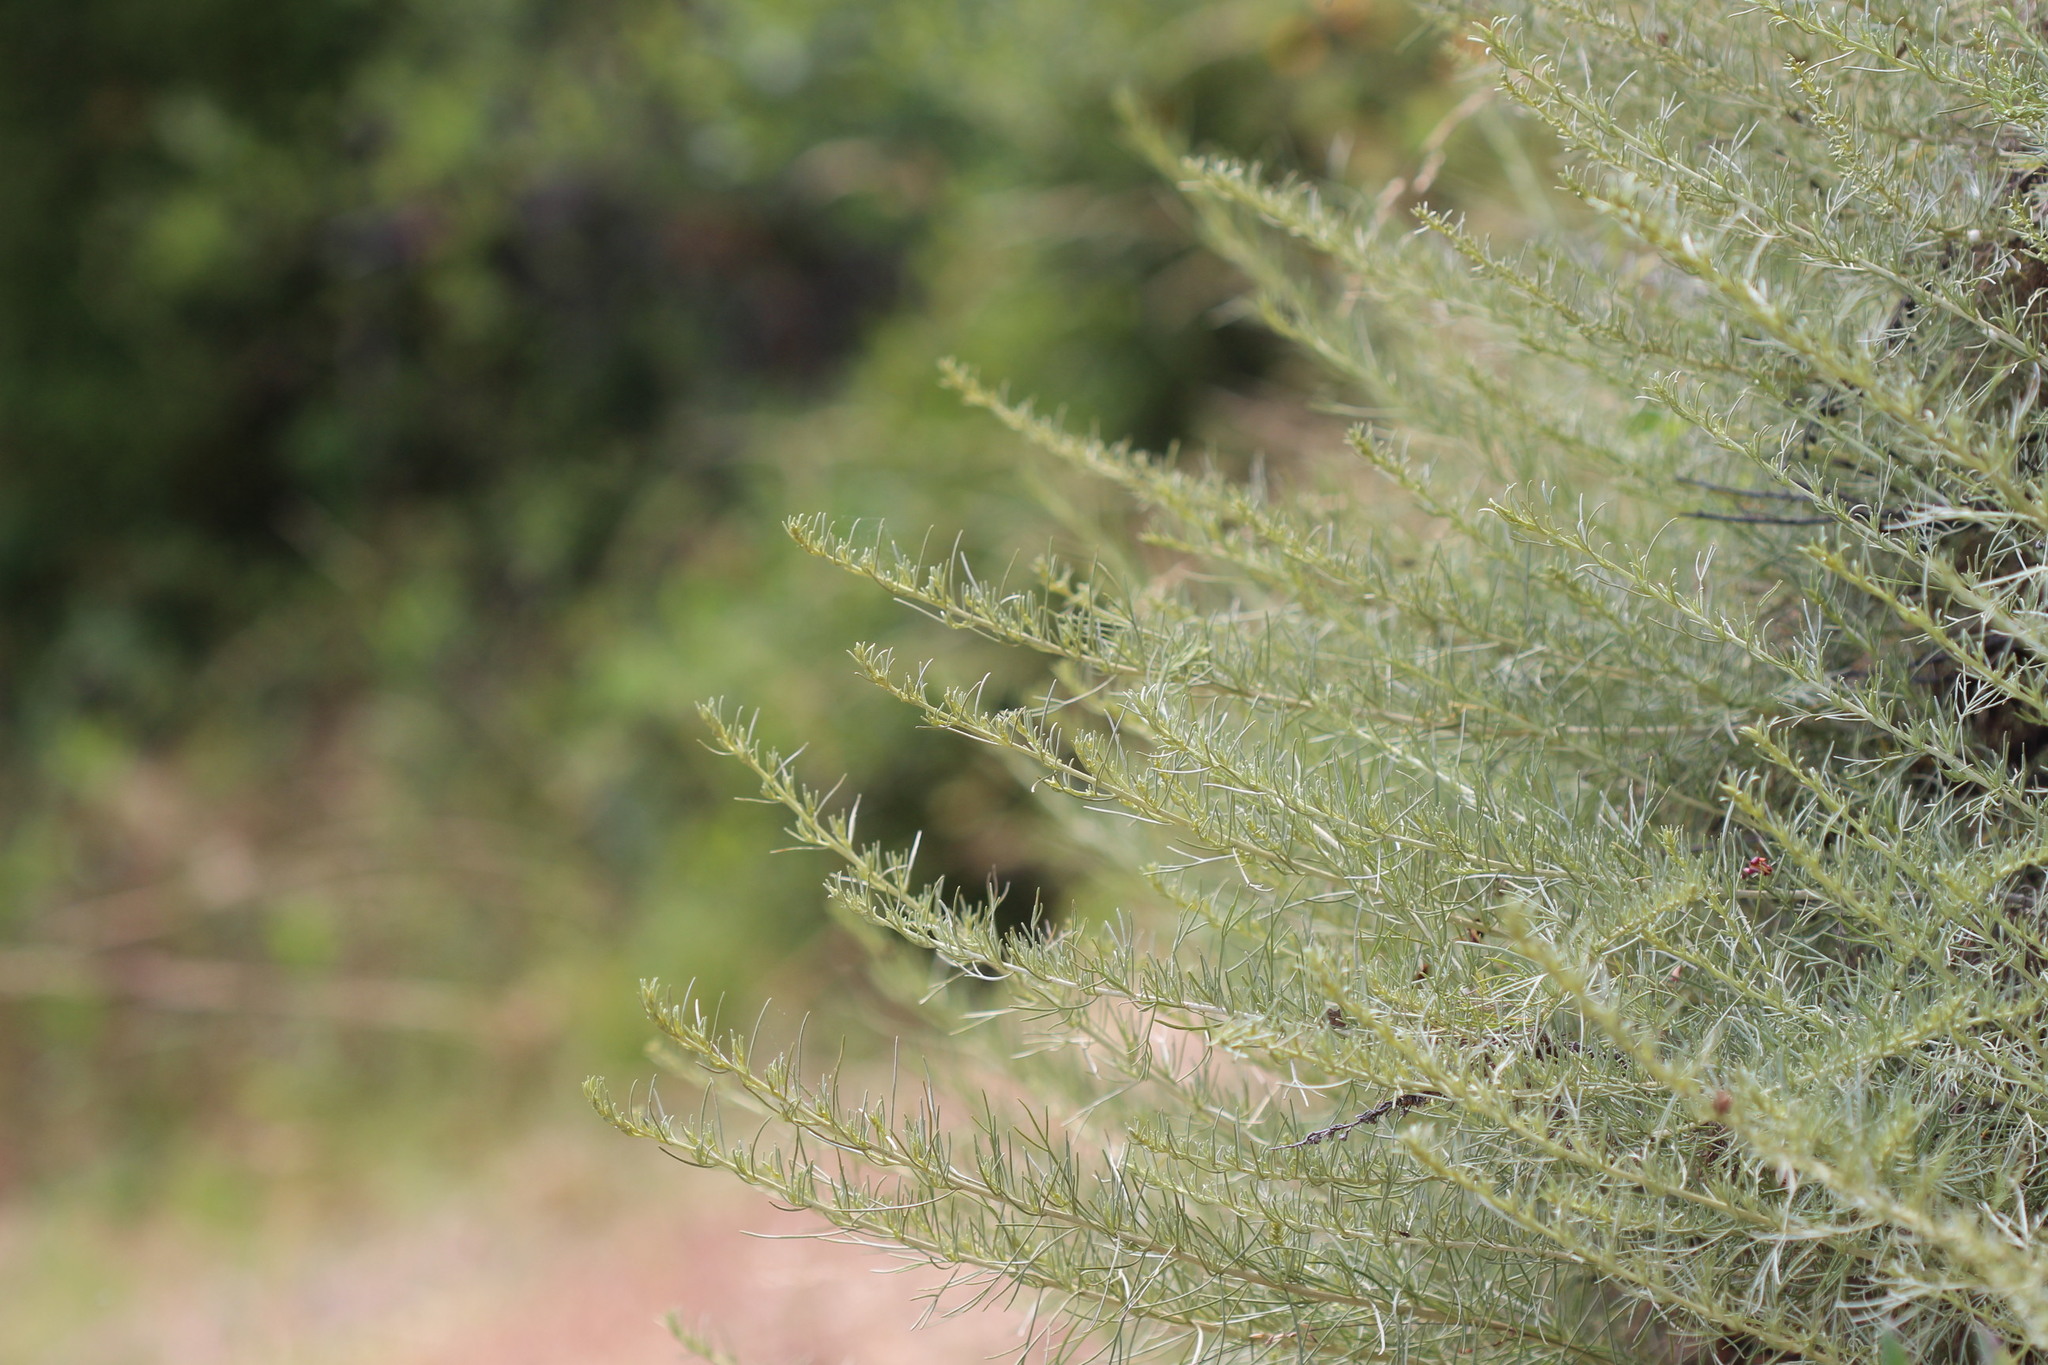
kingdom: Plantae
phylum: Tracheophyta
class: Magnoliopsida
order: Asterales
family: Asteraceae
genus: Artemisia
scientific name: Artemisia californica
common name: California sagebrush
